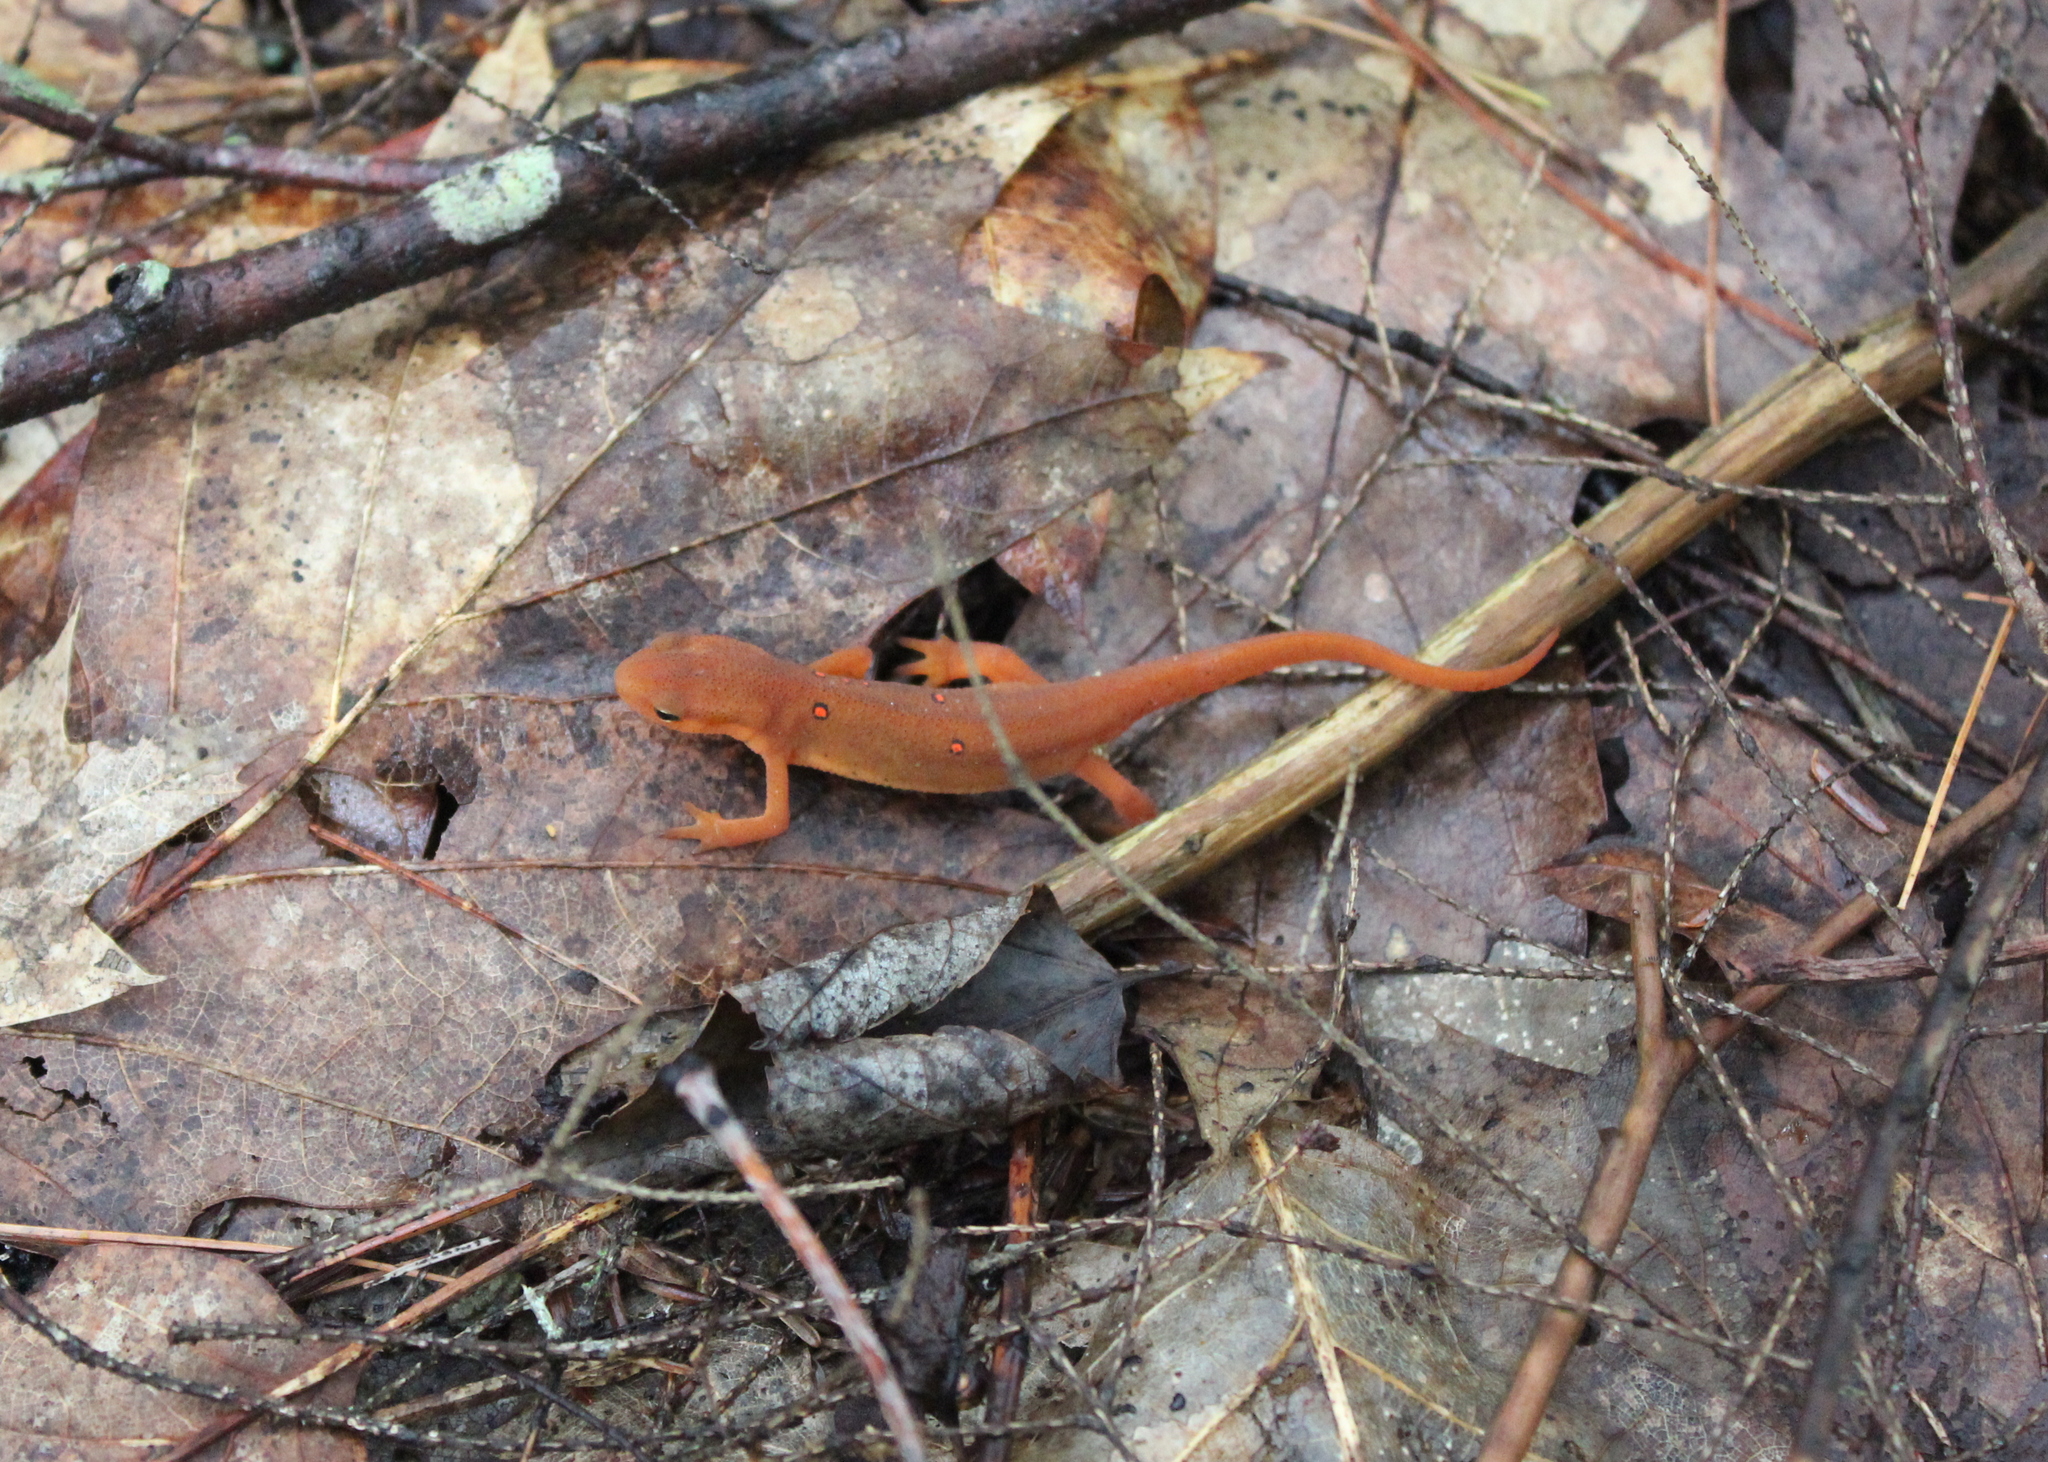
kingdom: Animalia
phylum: Chordata
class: Amphibia
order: Caudata
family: Salamandridae
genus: Notophthalmus
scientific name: Notophthalmus viridescens
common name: Eastern newt
